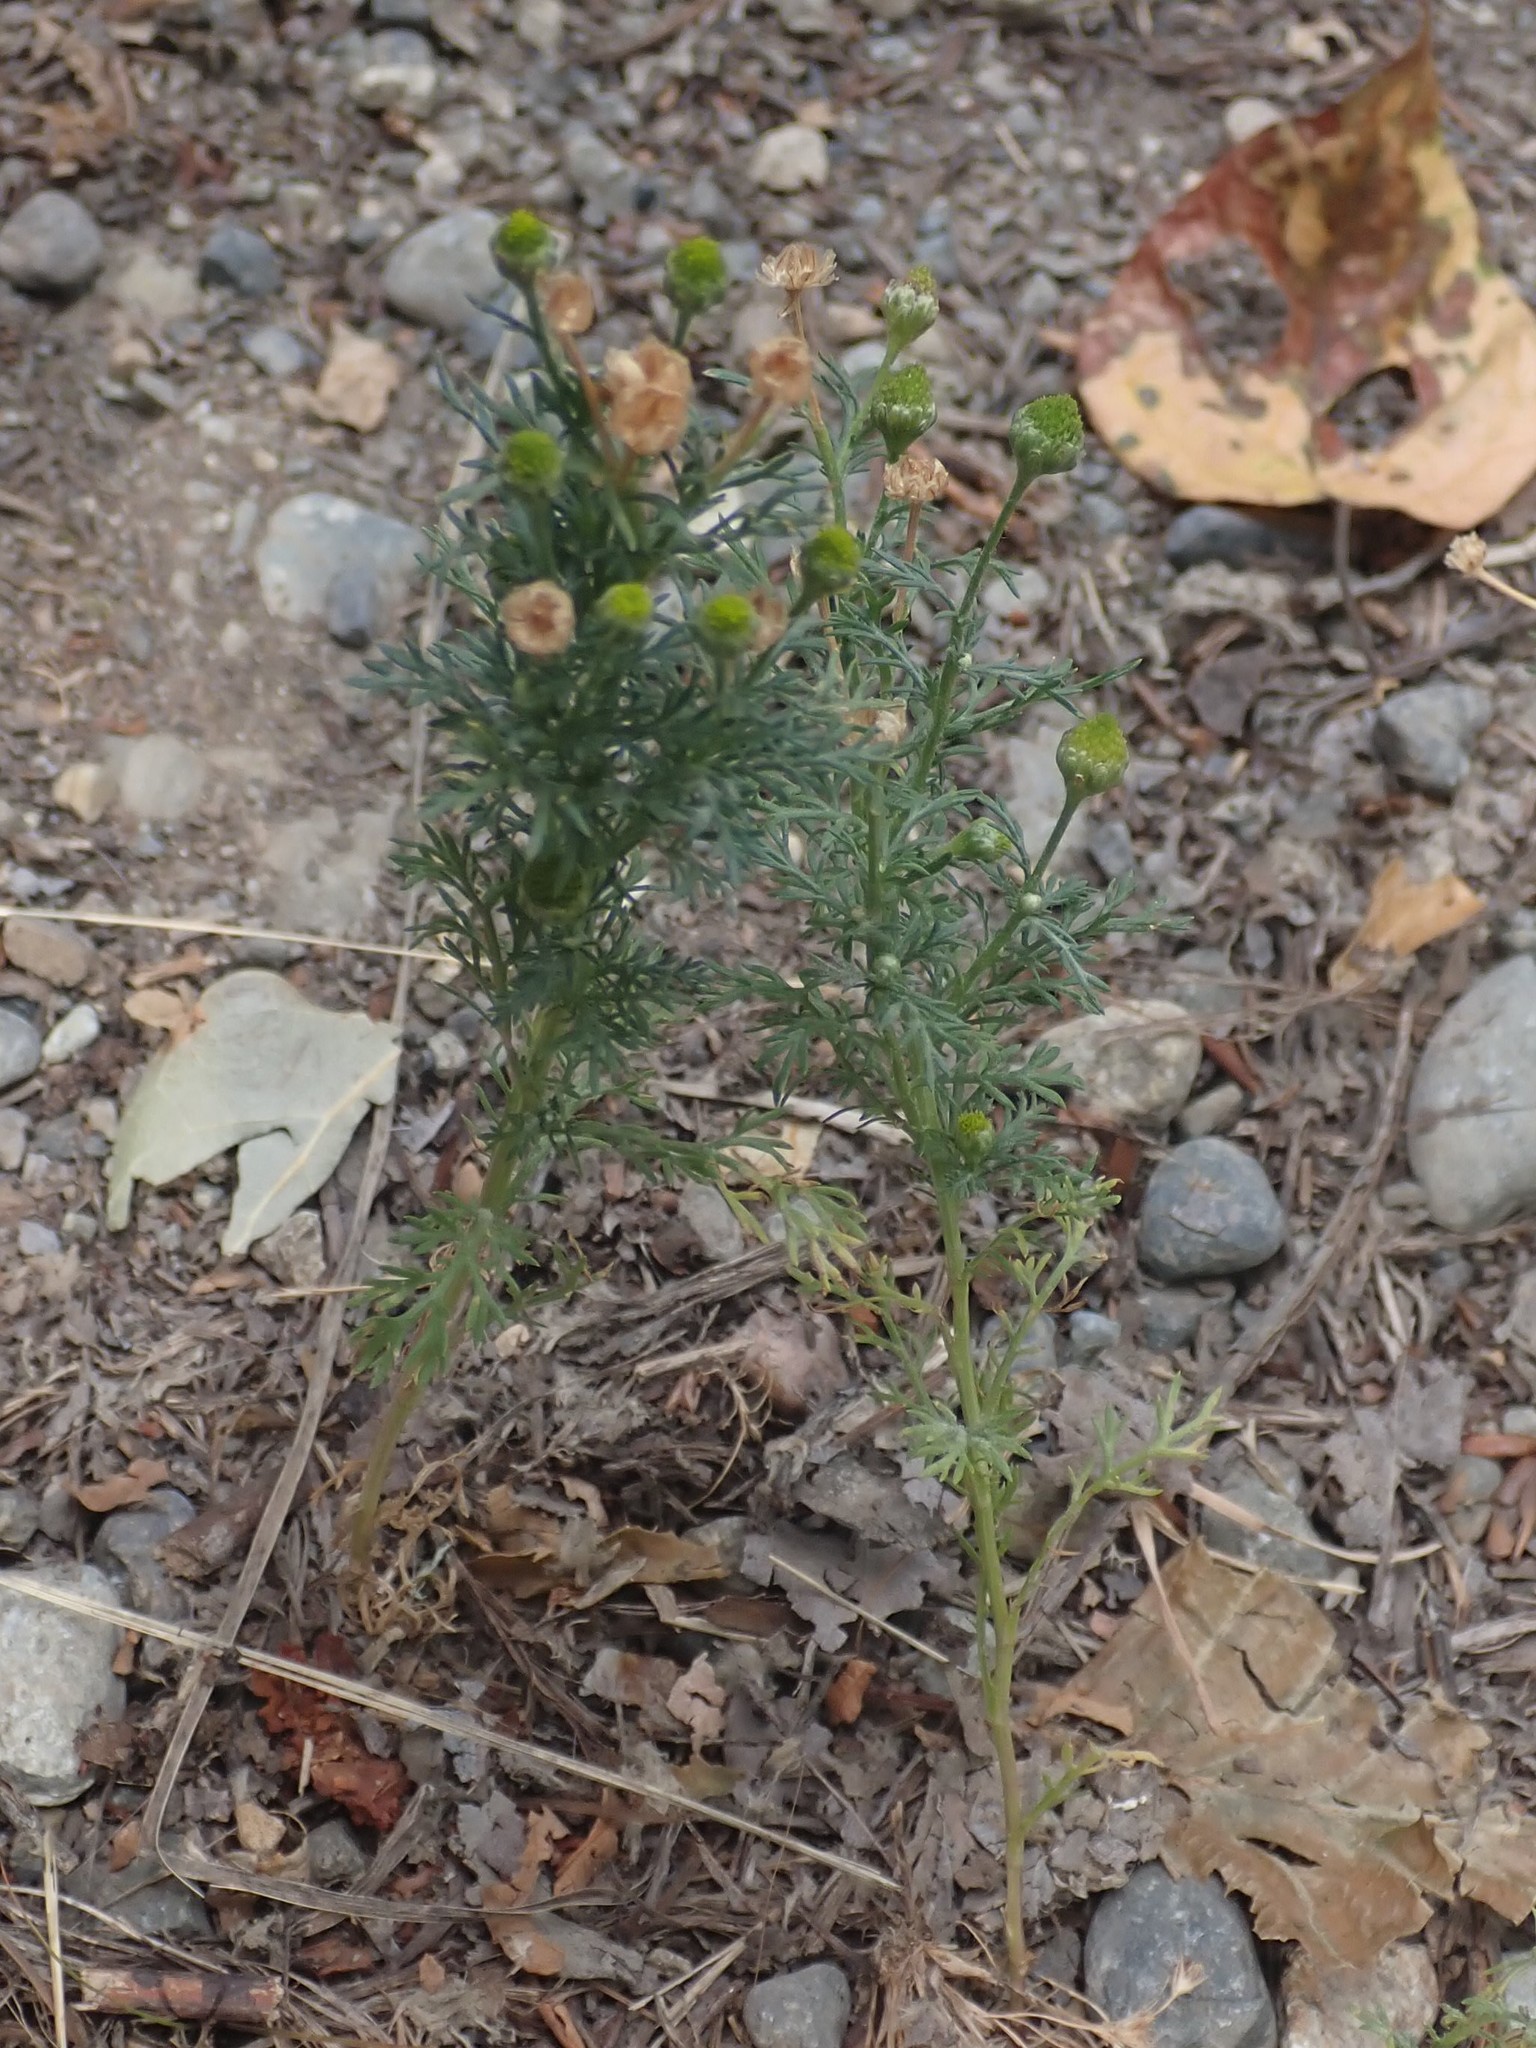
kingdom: Plantae
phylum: Tracheophyta
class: Magnoliopsida
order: Asterales
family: Asteraceae
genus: Matricaria
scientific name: Matricaria discoidea
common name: Disc mayweed
